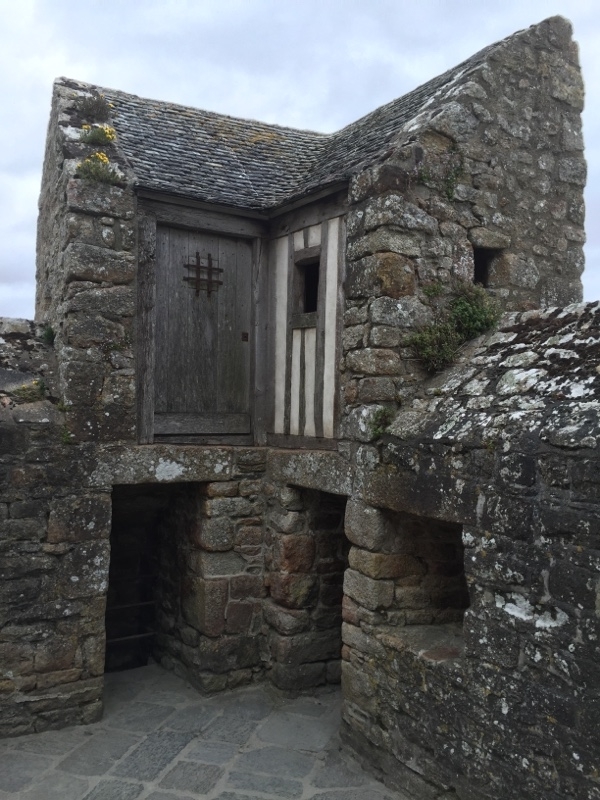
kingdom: Plantae
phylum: Tracheophyta
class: Magnoliopsida
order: Brassicales
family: Brassicaceae
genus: Erysimum
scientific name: Erysimum cheiri
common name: Wallflower
